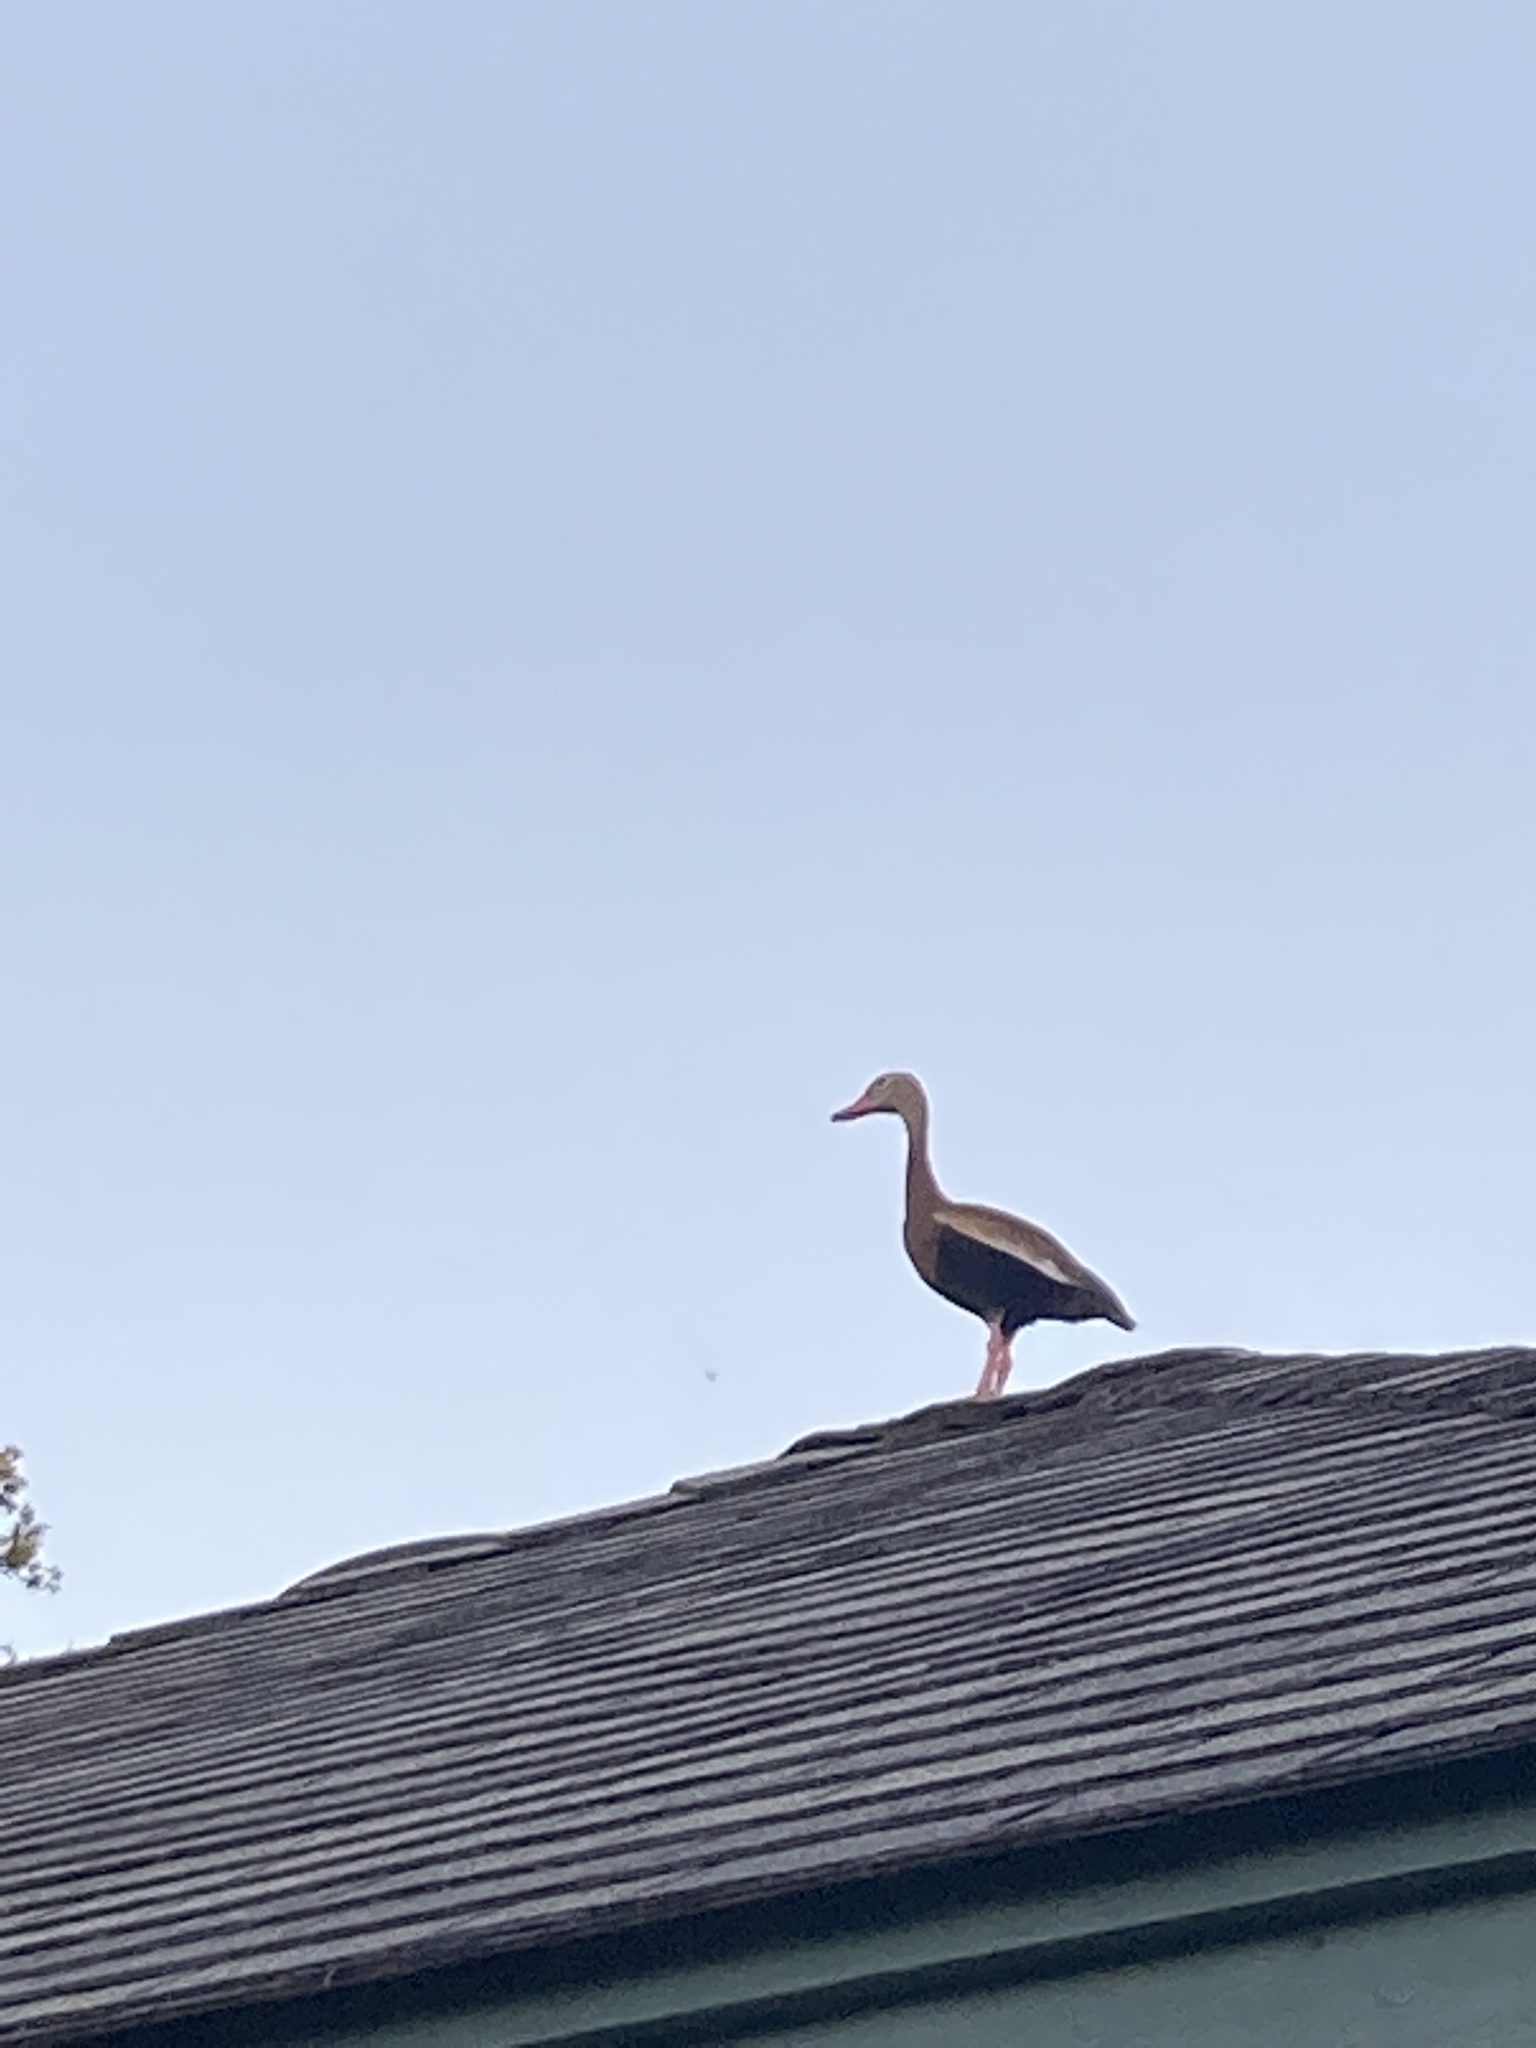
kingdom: Animalia
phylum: Chordata
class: Aves
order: Anseriformes
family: Anatidae
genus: Dendrocygna
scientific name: Dendrocygna autumnalis
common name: Black-bellied whistling duck
